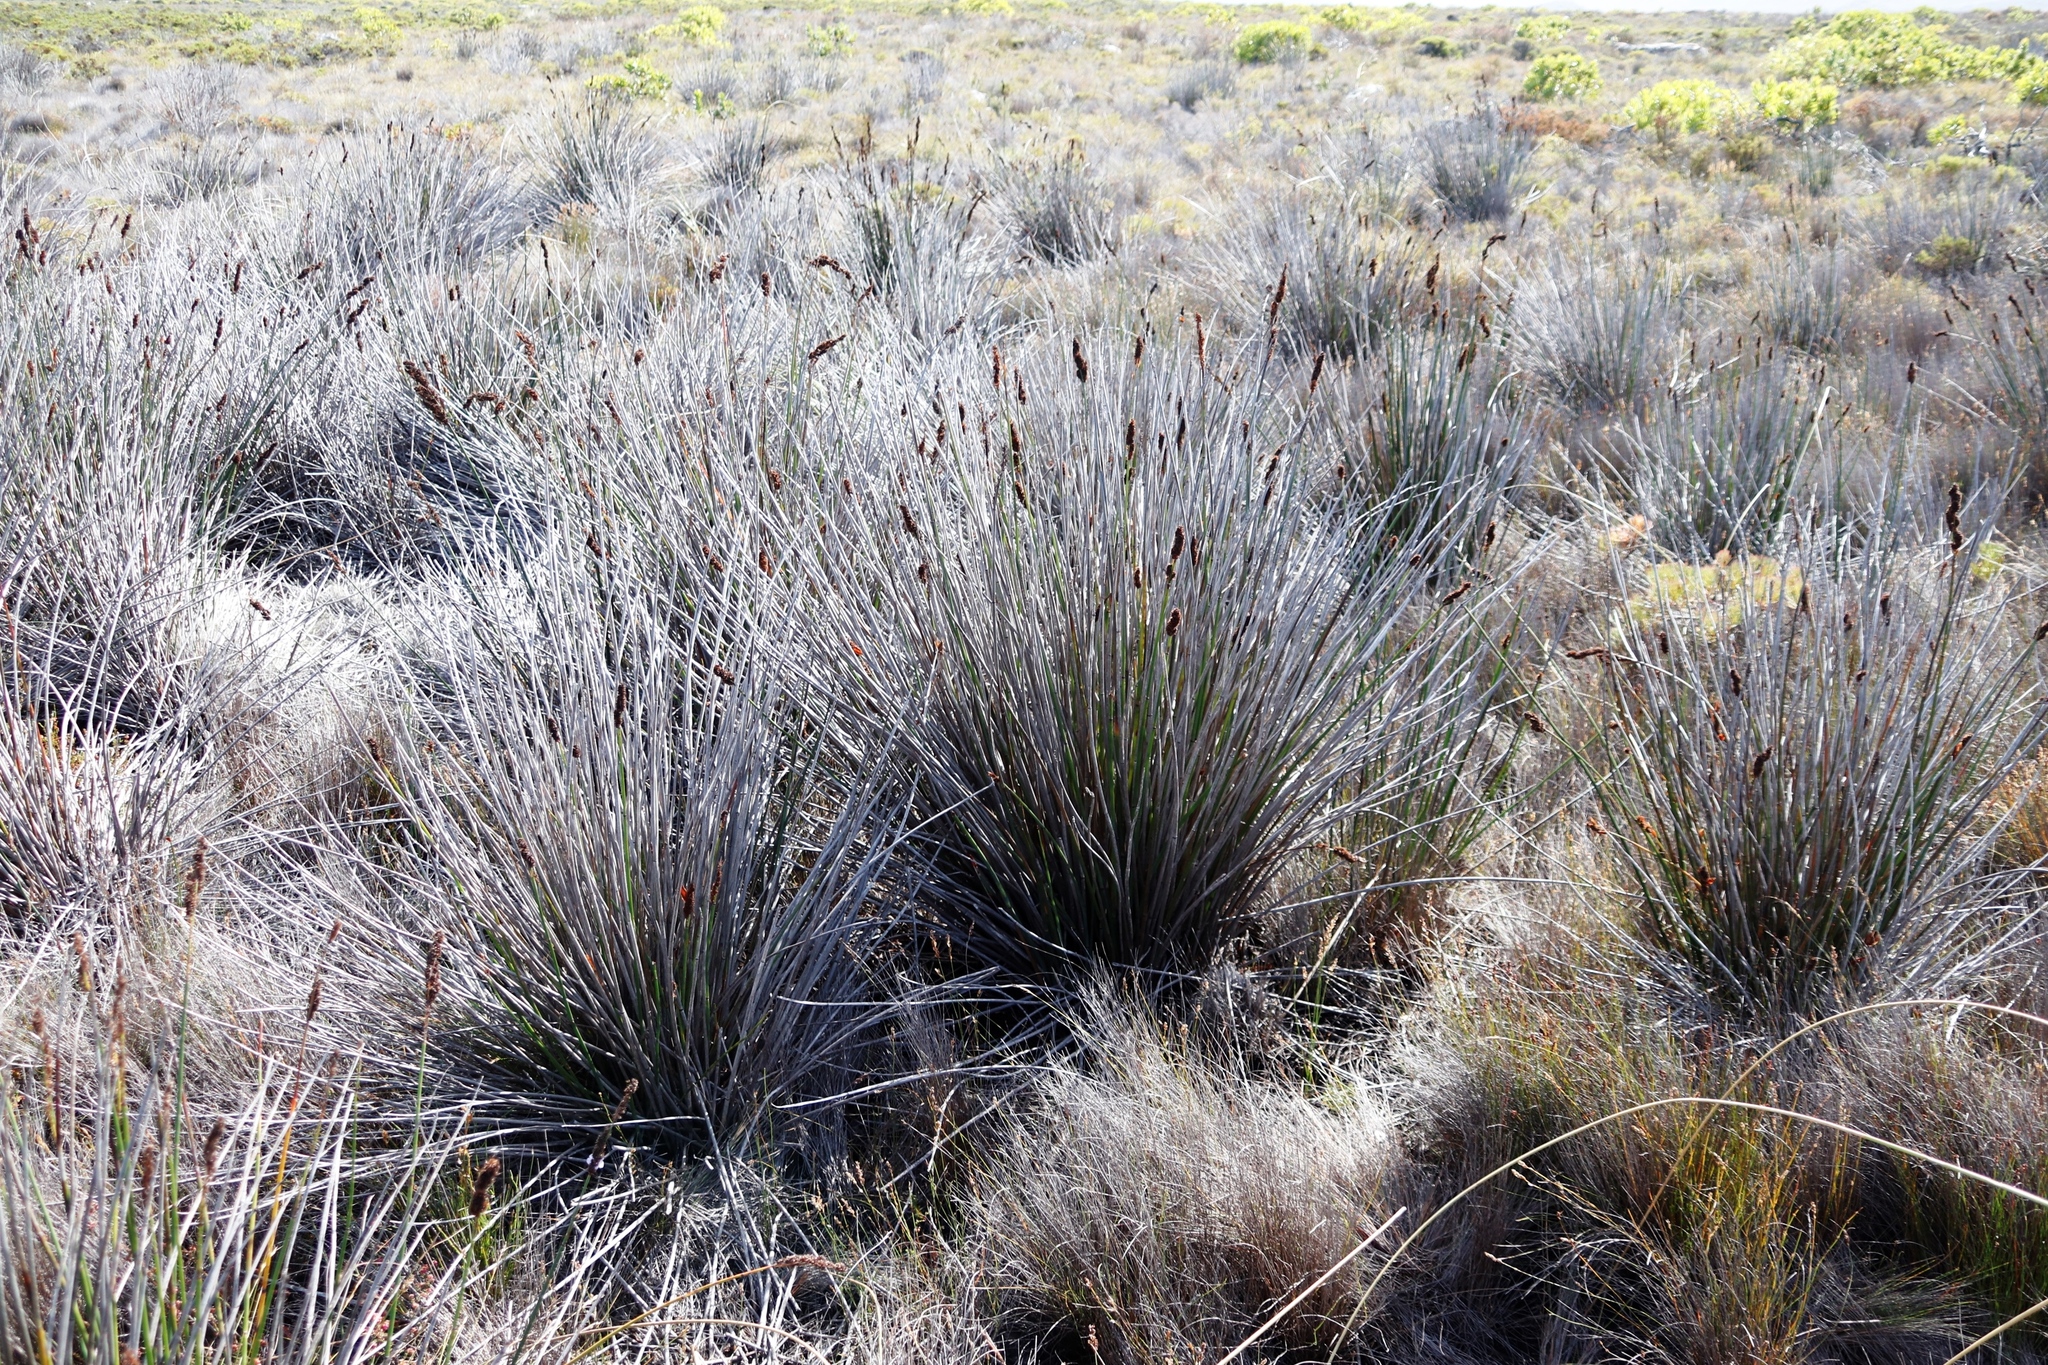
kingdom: Plantae
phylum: Tracheophyta
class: Liliopsida
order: Poales
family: Restionaceae
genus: Elegia
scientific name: Elegia cuspidata
